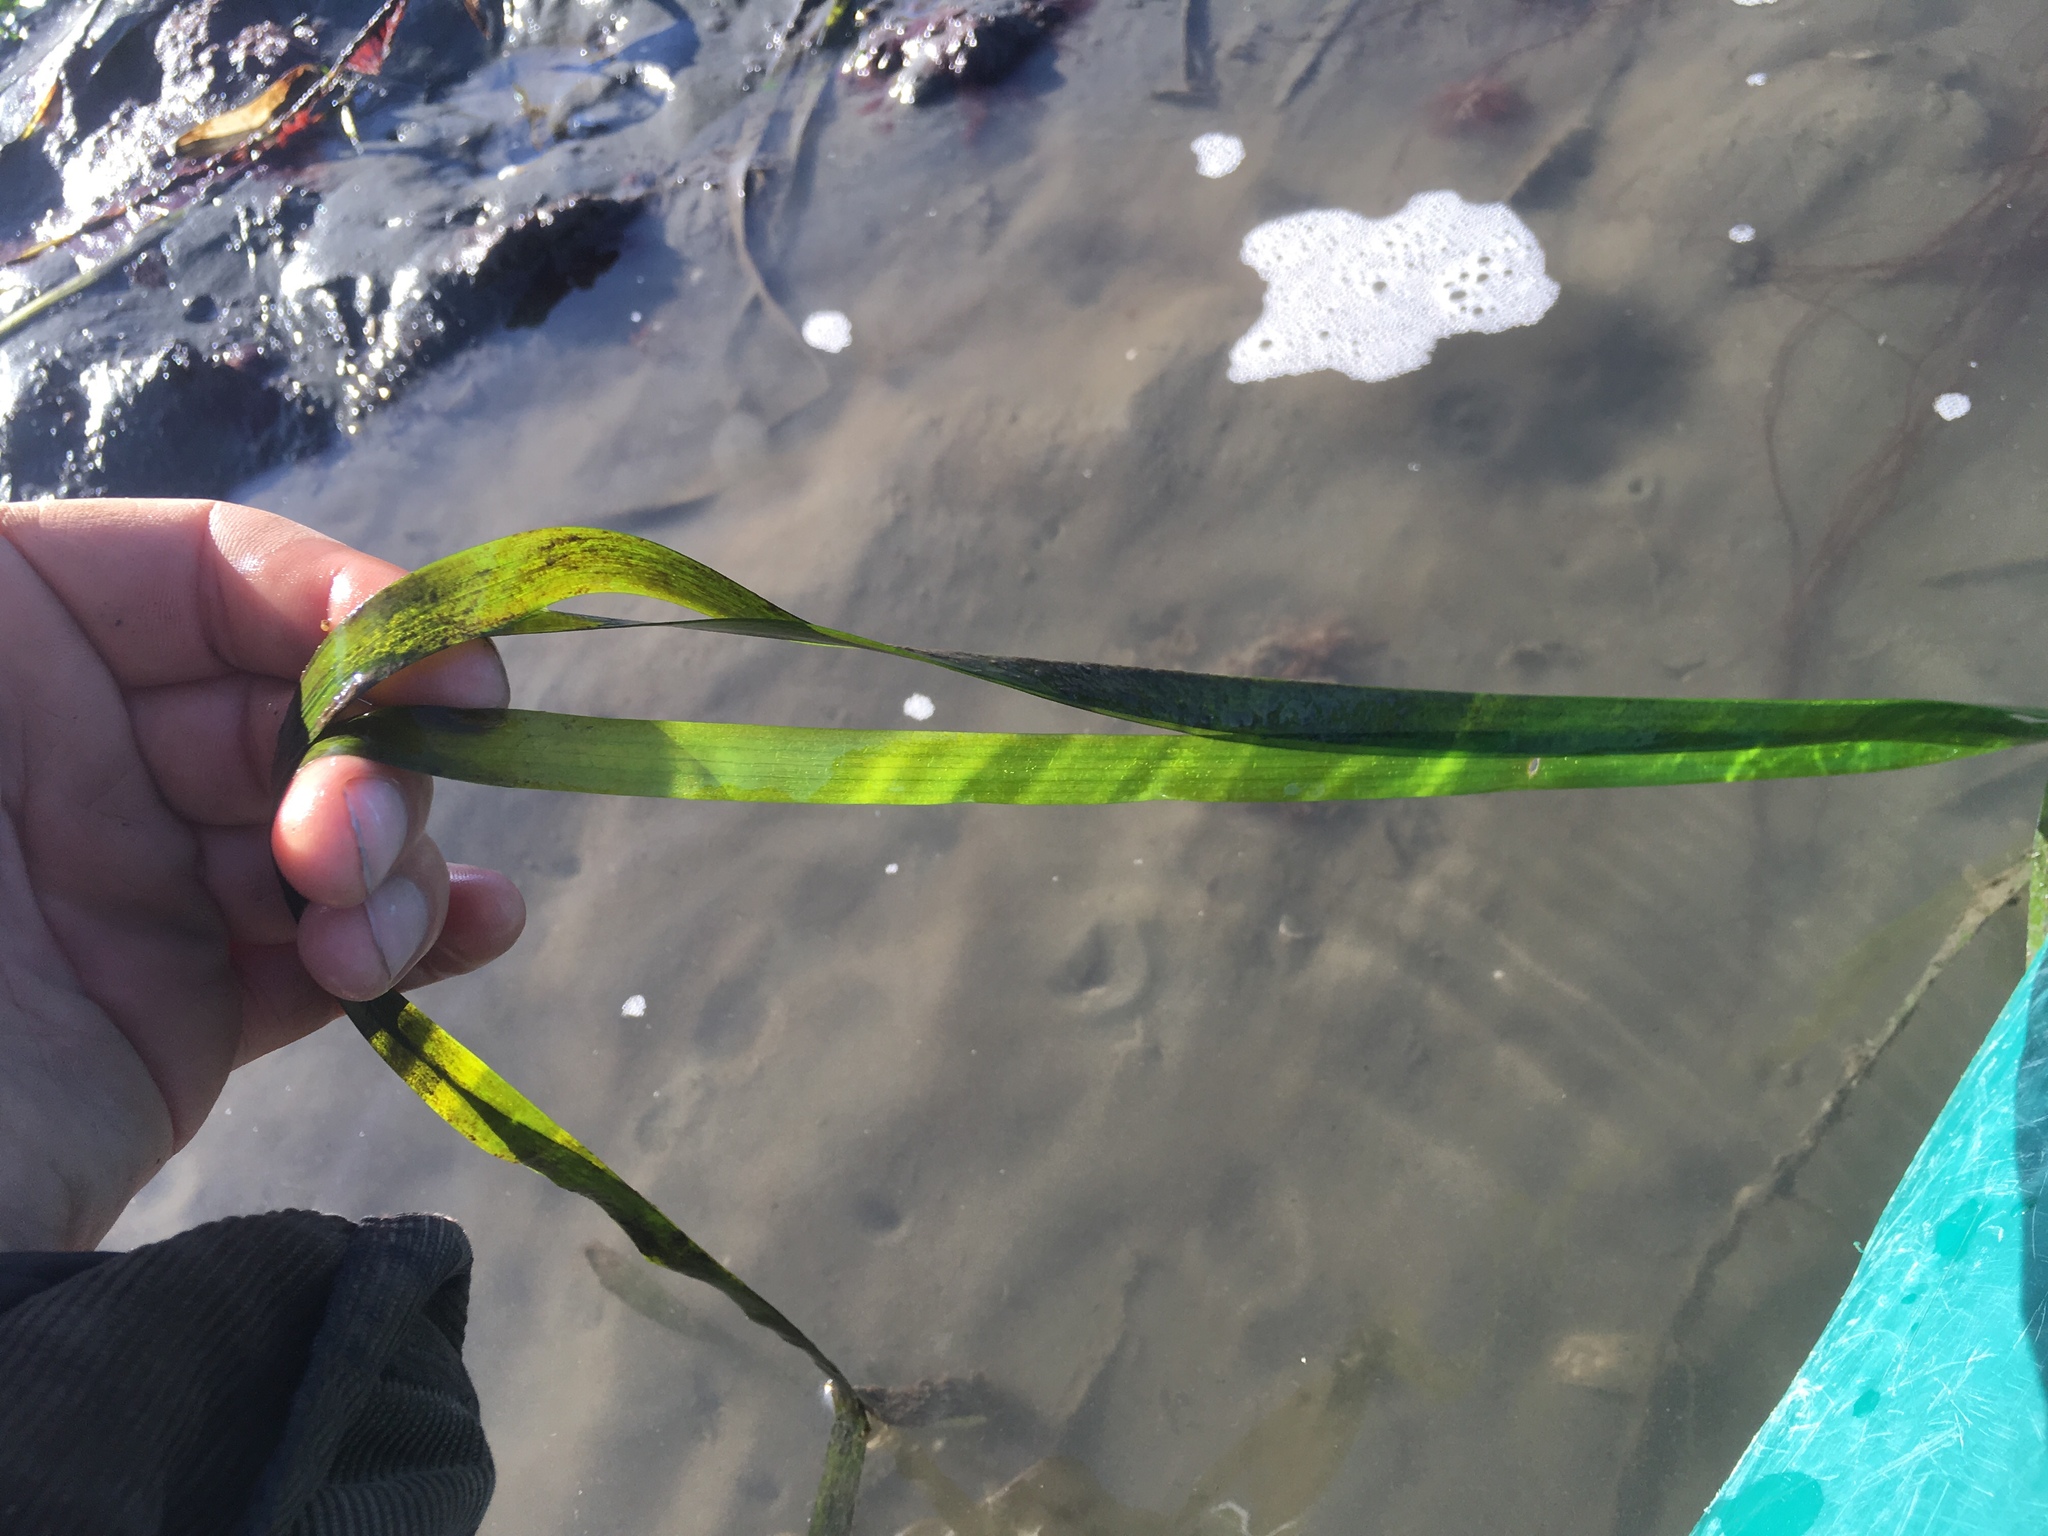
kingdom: Plantae
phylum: Tracheophyta
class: Liliopsida
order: Alismatales
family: Zosteraceae
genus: Zostera
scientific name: Zostera marina
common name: Eelgrass
